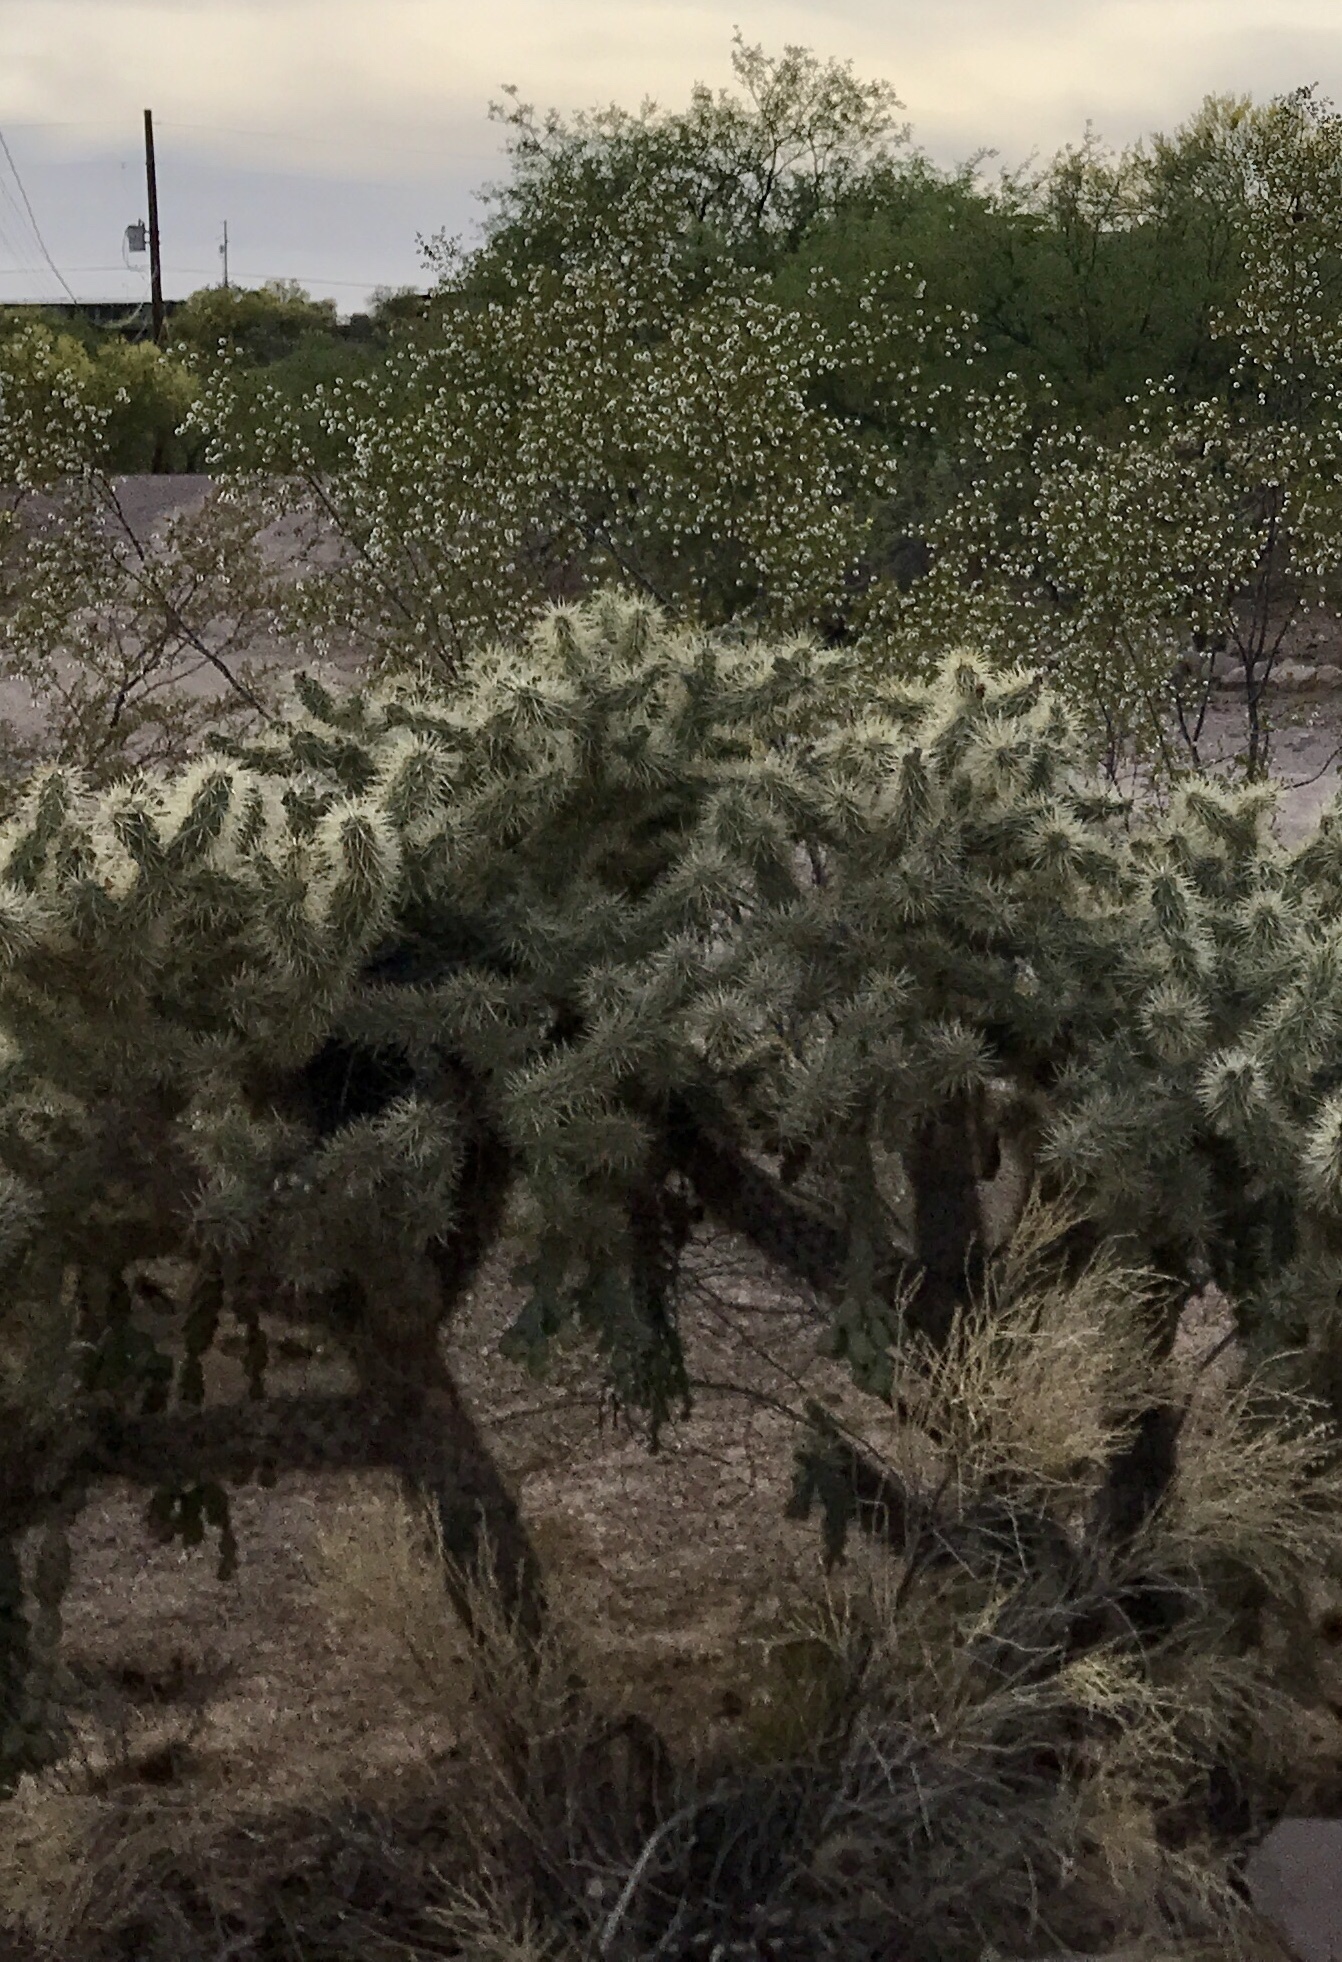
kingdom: Plantae
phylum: Tracheophyta
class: Magnoliopsida
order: Caryophyllales
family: Cactaceae
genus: Cylindropuntia
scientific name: Cylindropuntia fulgida
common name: Jumping cholla
